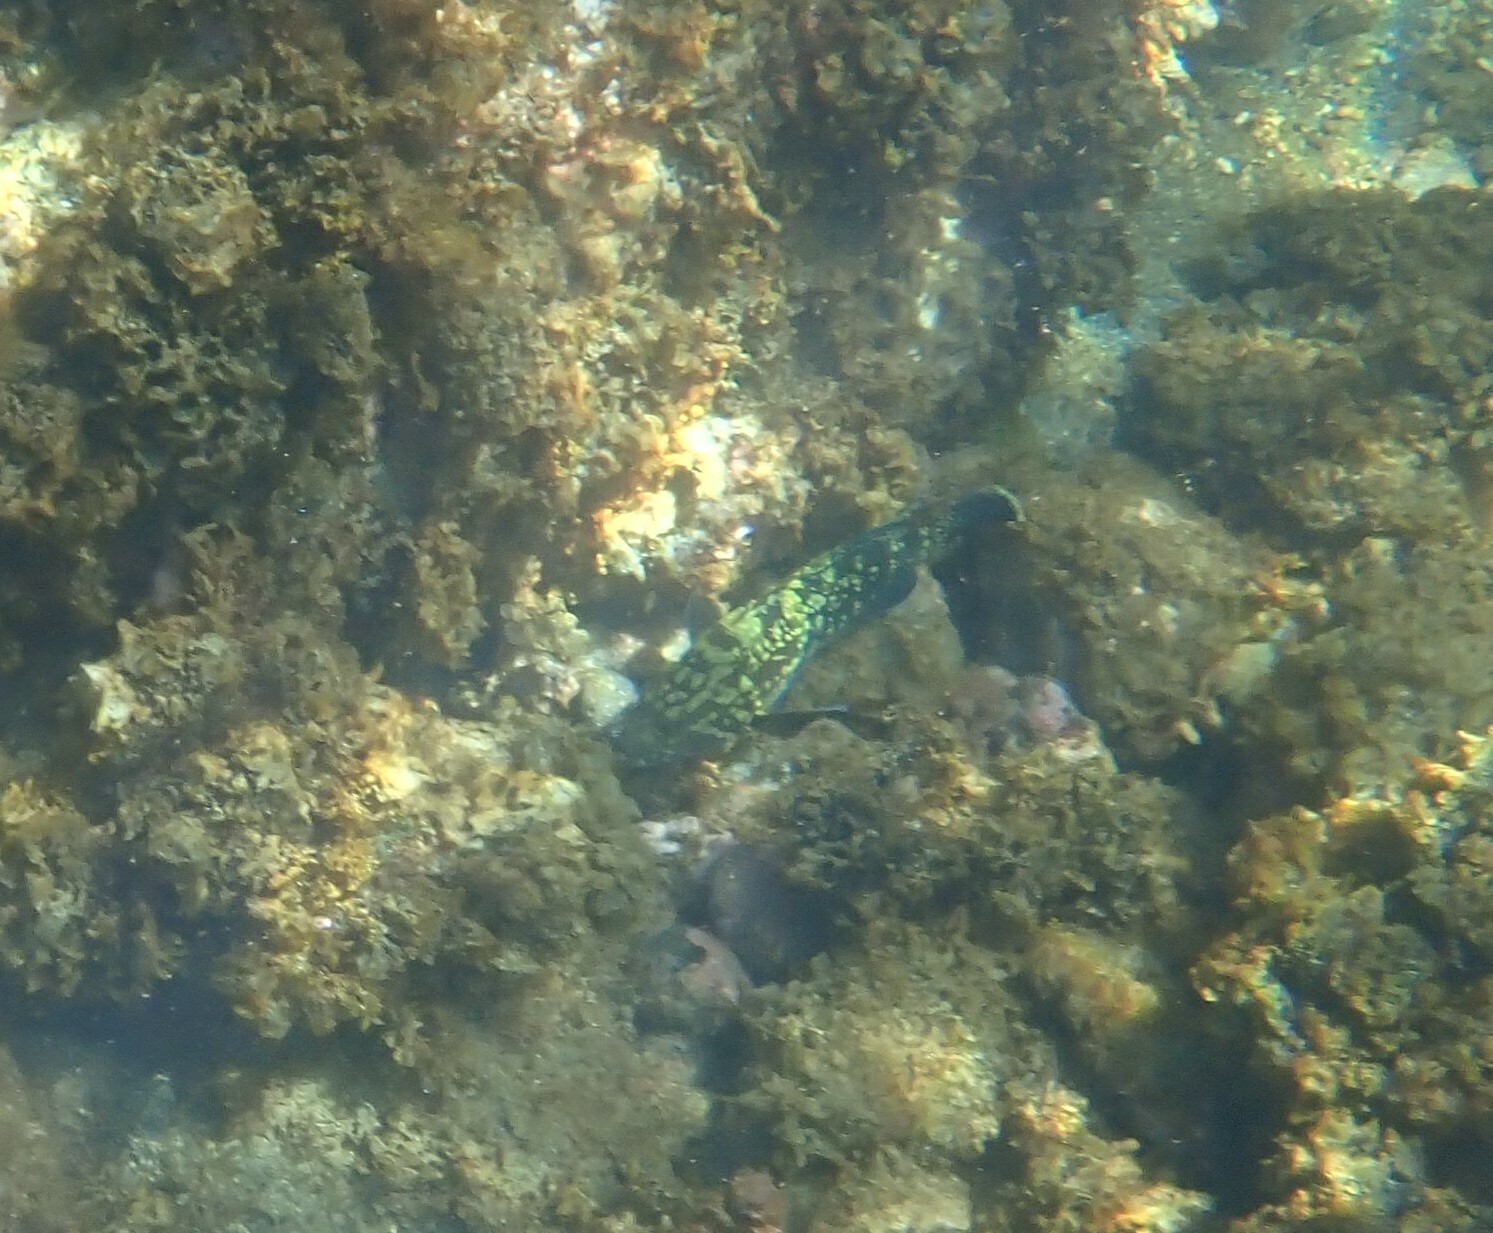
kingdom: Animalia
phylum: Chordata
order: Perciformes
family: Serranidae
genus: Epinephelus
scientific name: Epinephelus marginatus
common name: Dusky grouper
